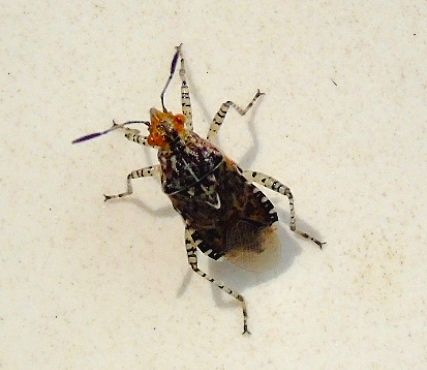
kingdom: Animalia
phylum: Arthropoda
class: Insecta
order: Hemiptera
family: Rhopalidae
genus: Niesthrea
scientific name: Niesthrea
